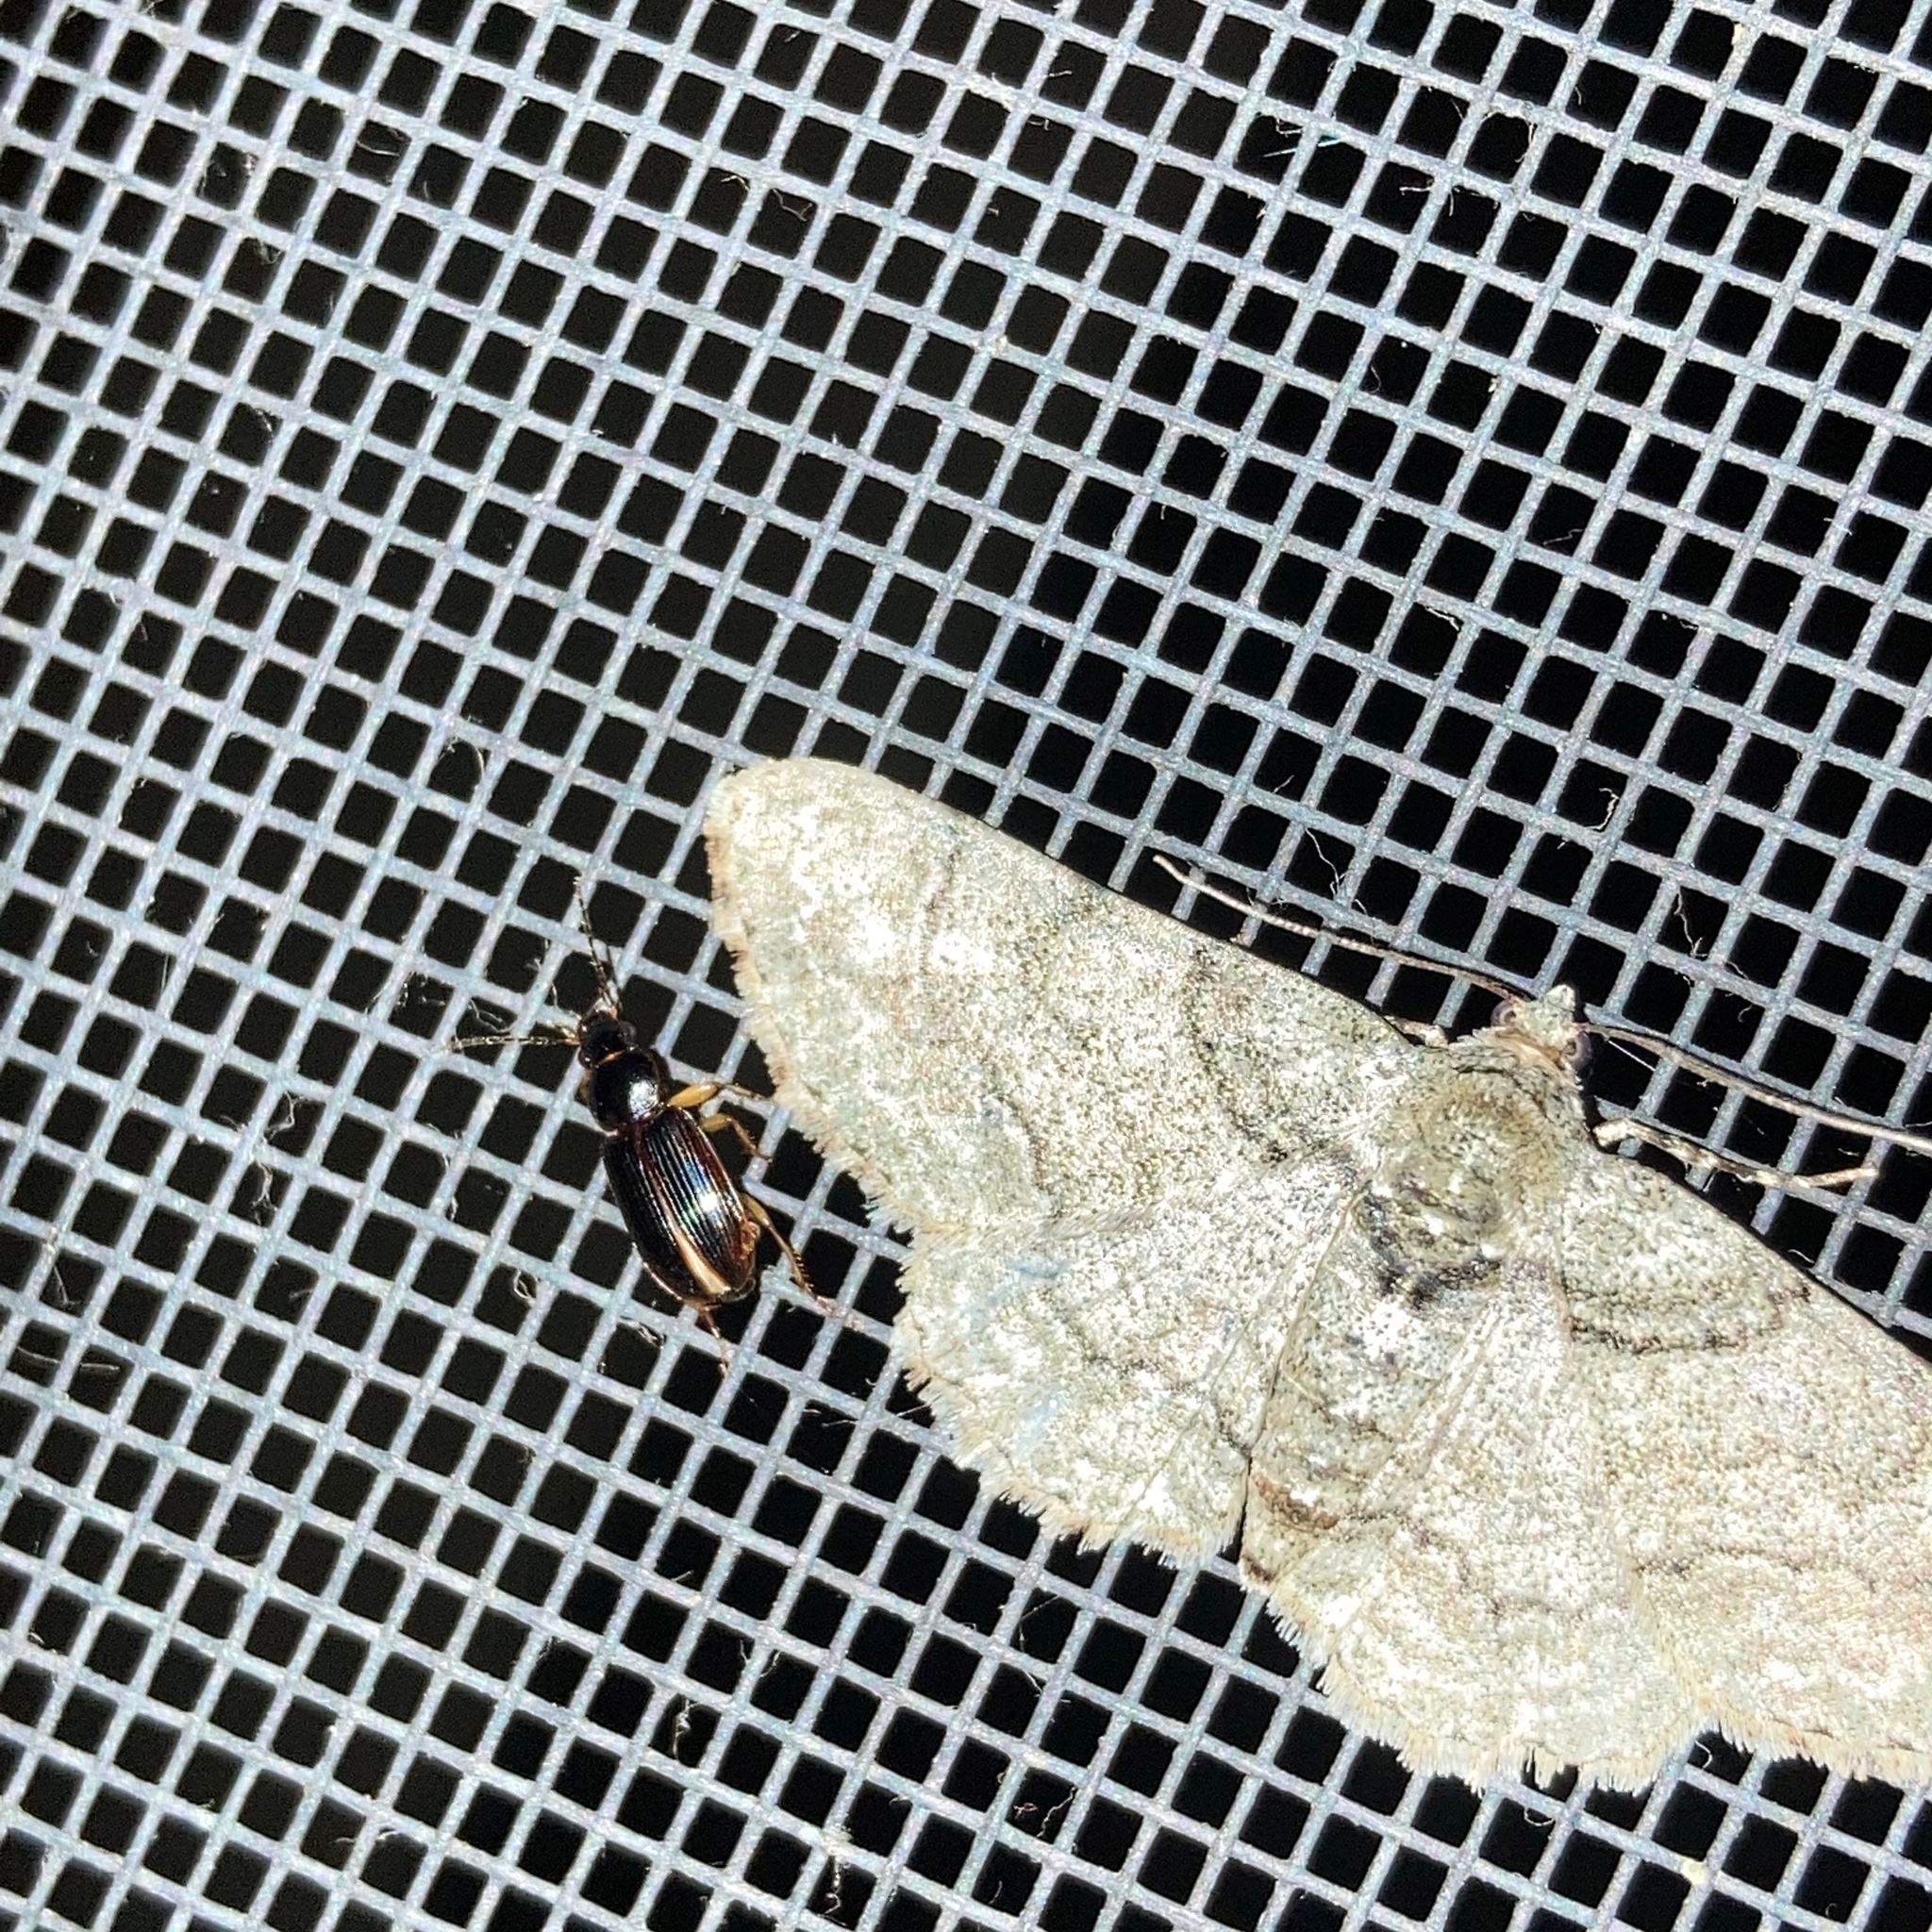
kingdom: Animalia
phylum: Arthropoda
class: Insecta
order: Lepidoptera
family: Geometridae
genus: Cleora
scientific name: Cleora sublunaria
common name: Double-lined gray
